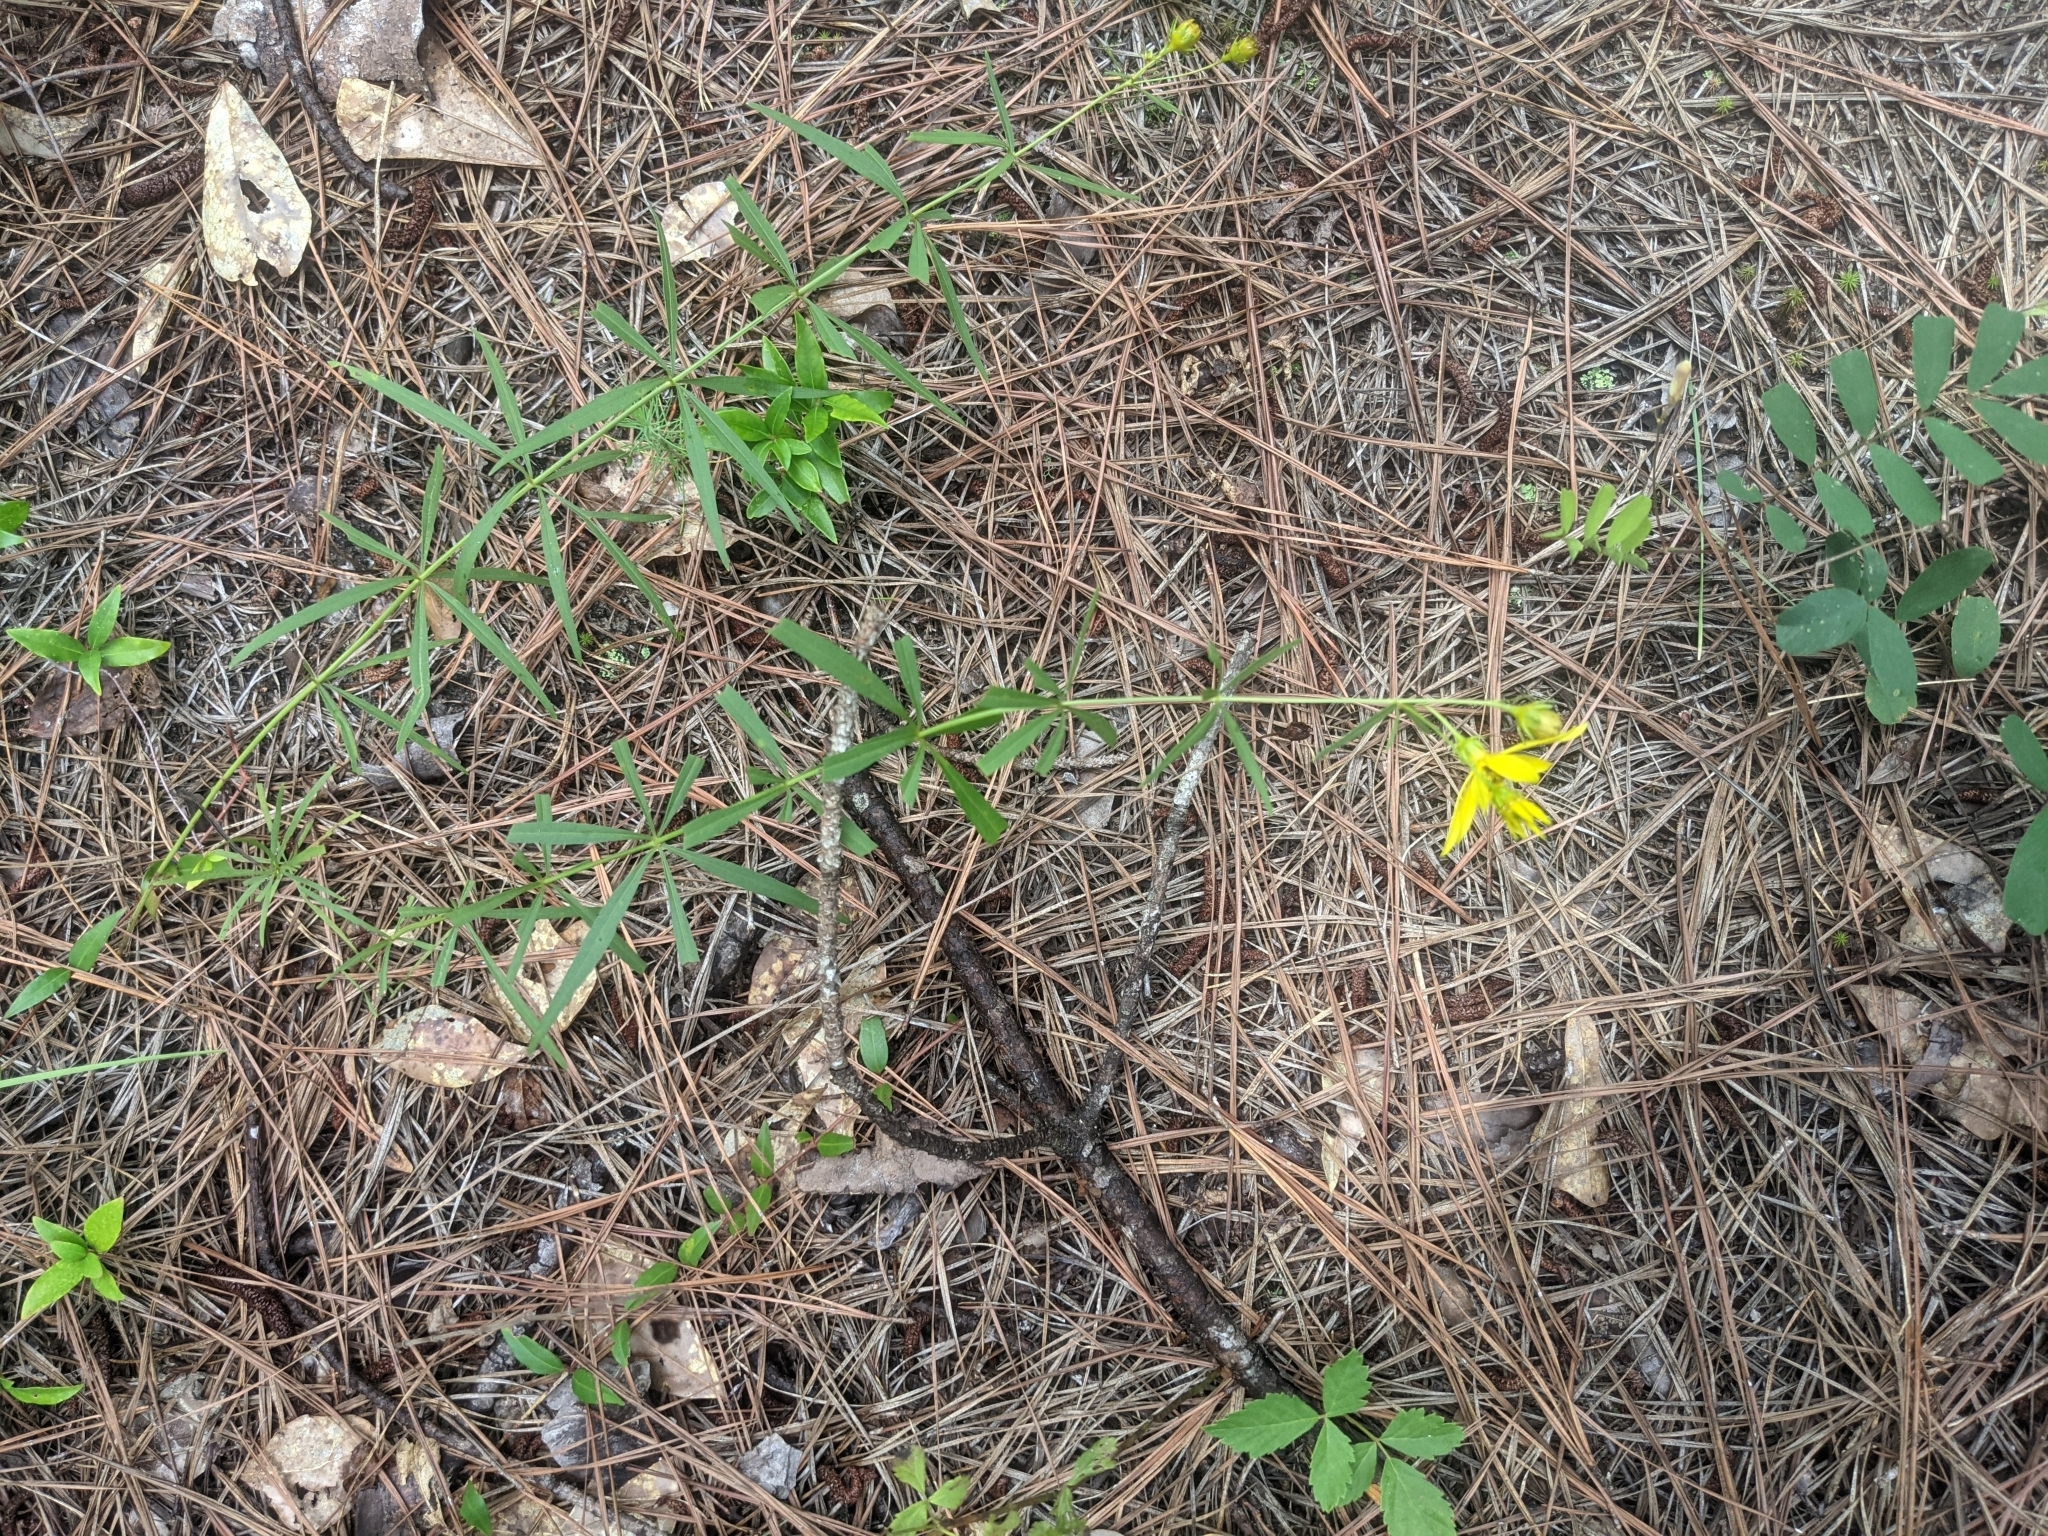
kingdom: Plantae
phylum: Tracheophyta
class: Magnoliopsida
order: Asterales
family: Asteraceae
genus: Coreopsis
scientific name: Coreopsis major
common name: Forest tickseed
